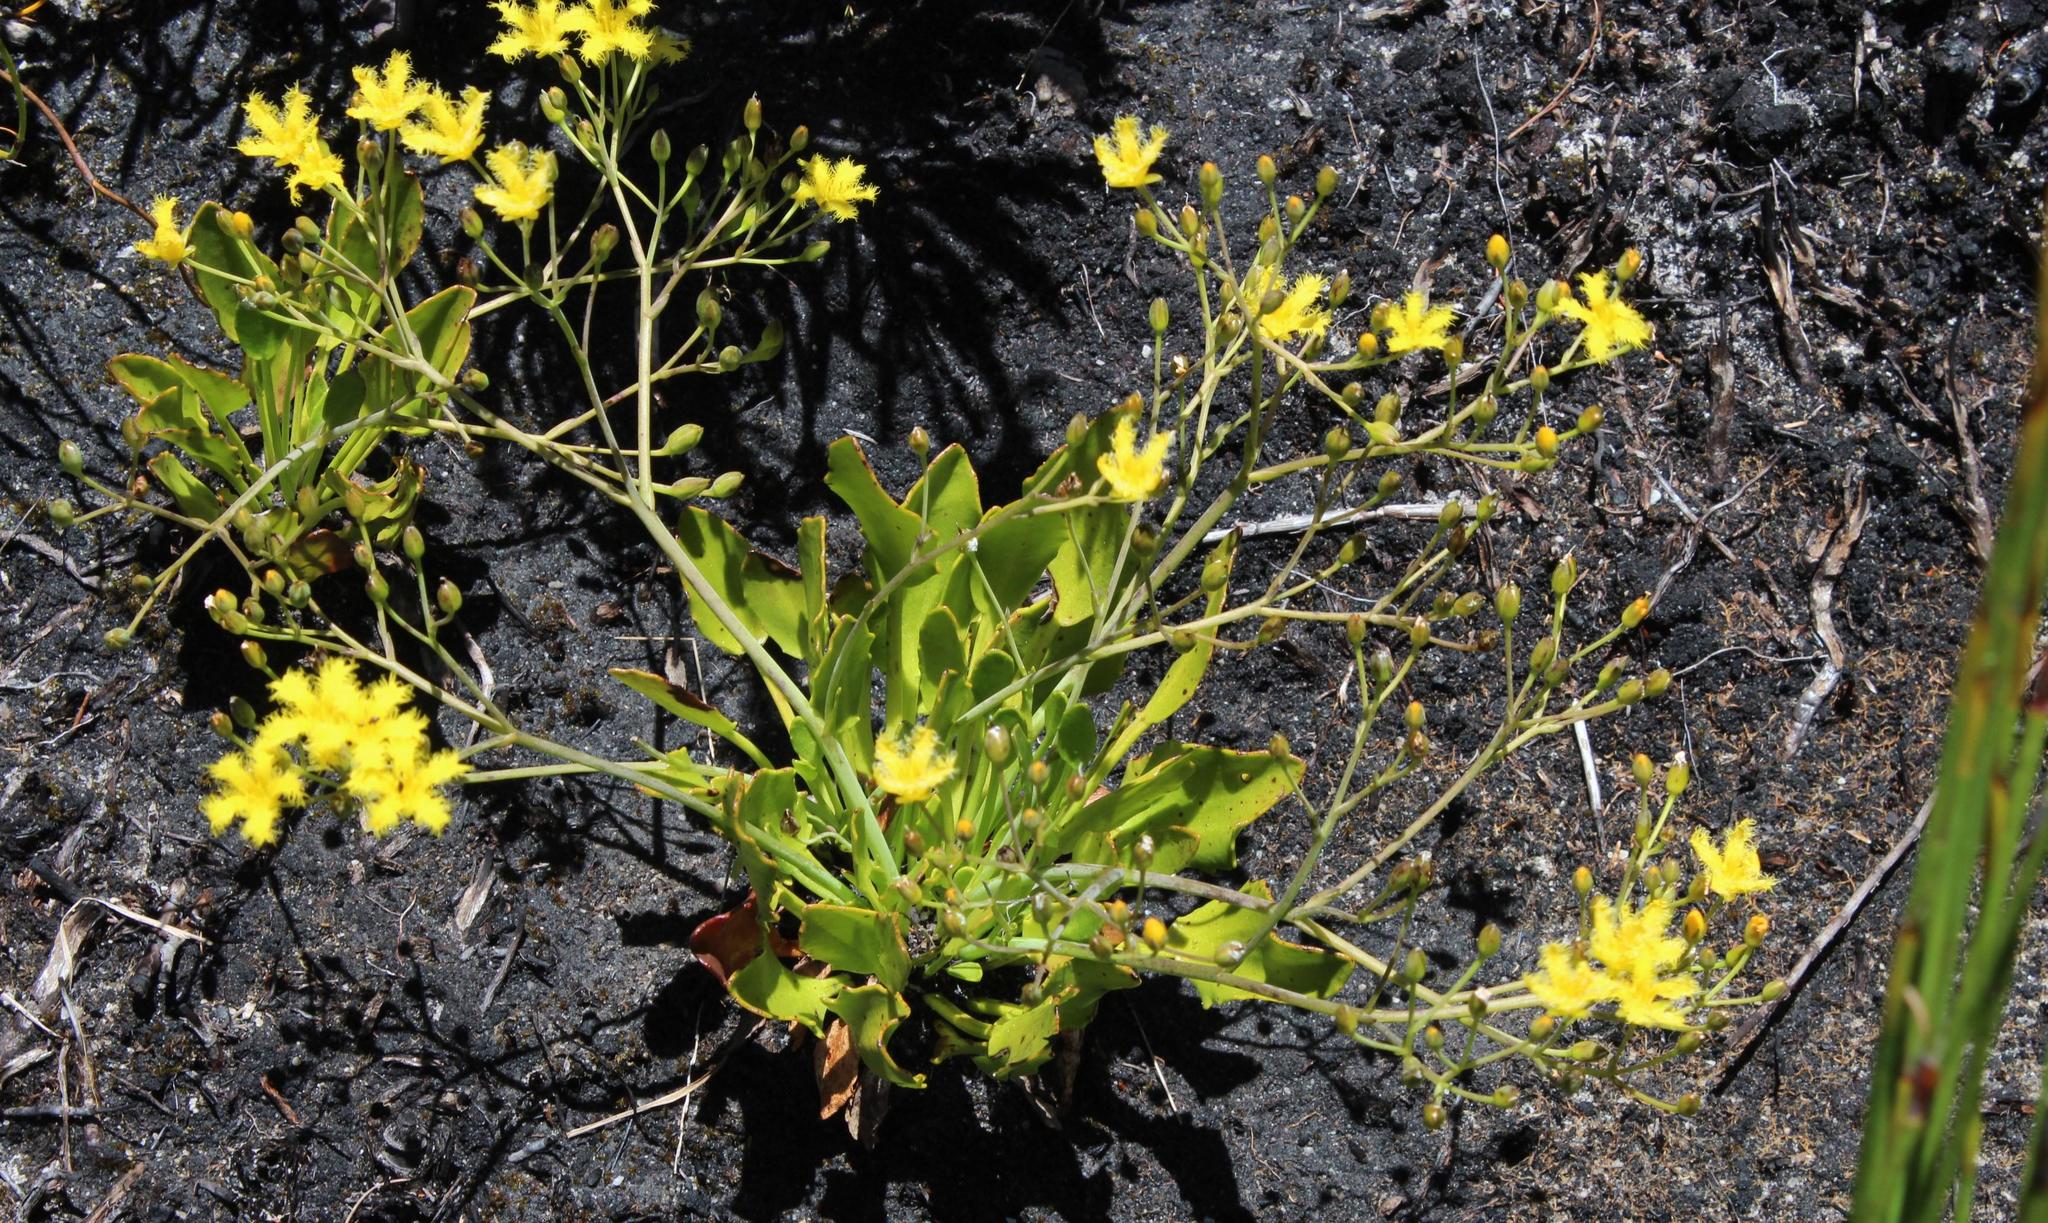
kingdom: Plantae
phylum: Tracheophyta
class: Magnoliopsida
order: Asterales
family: Menyanthaceae
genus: Villarsia
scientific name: Villarsia manningiana
